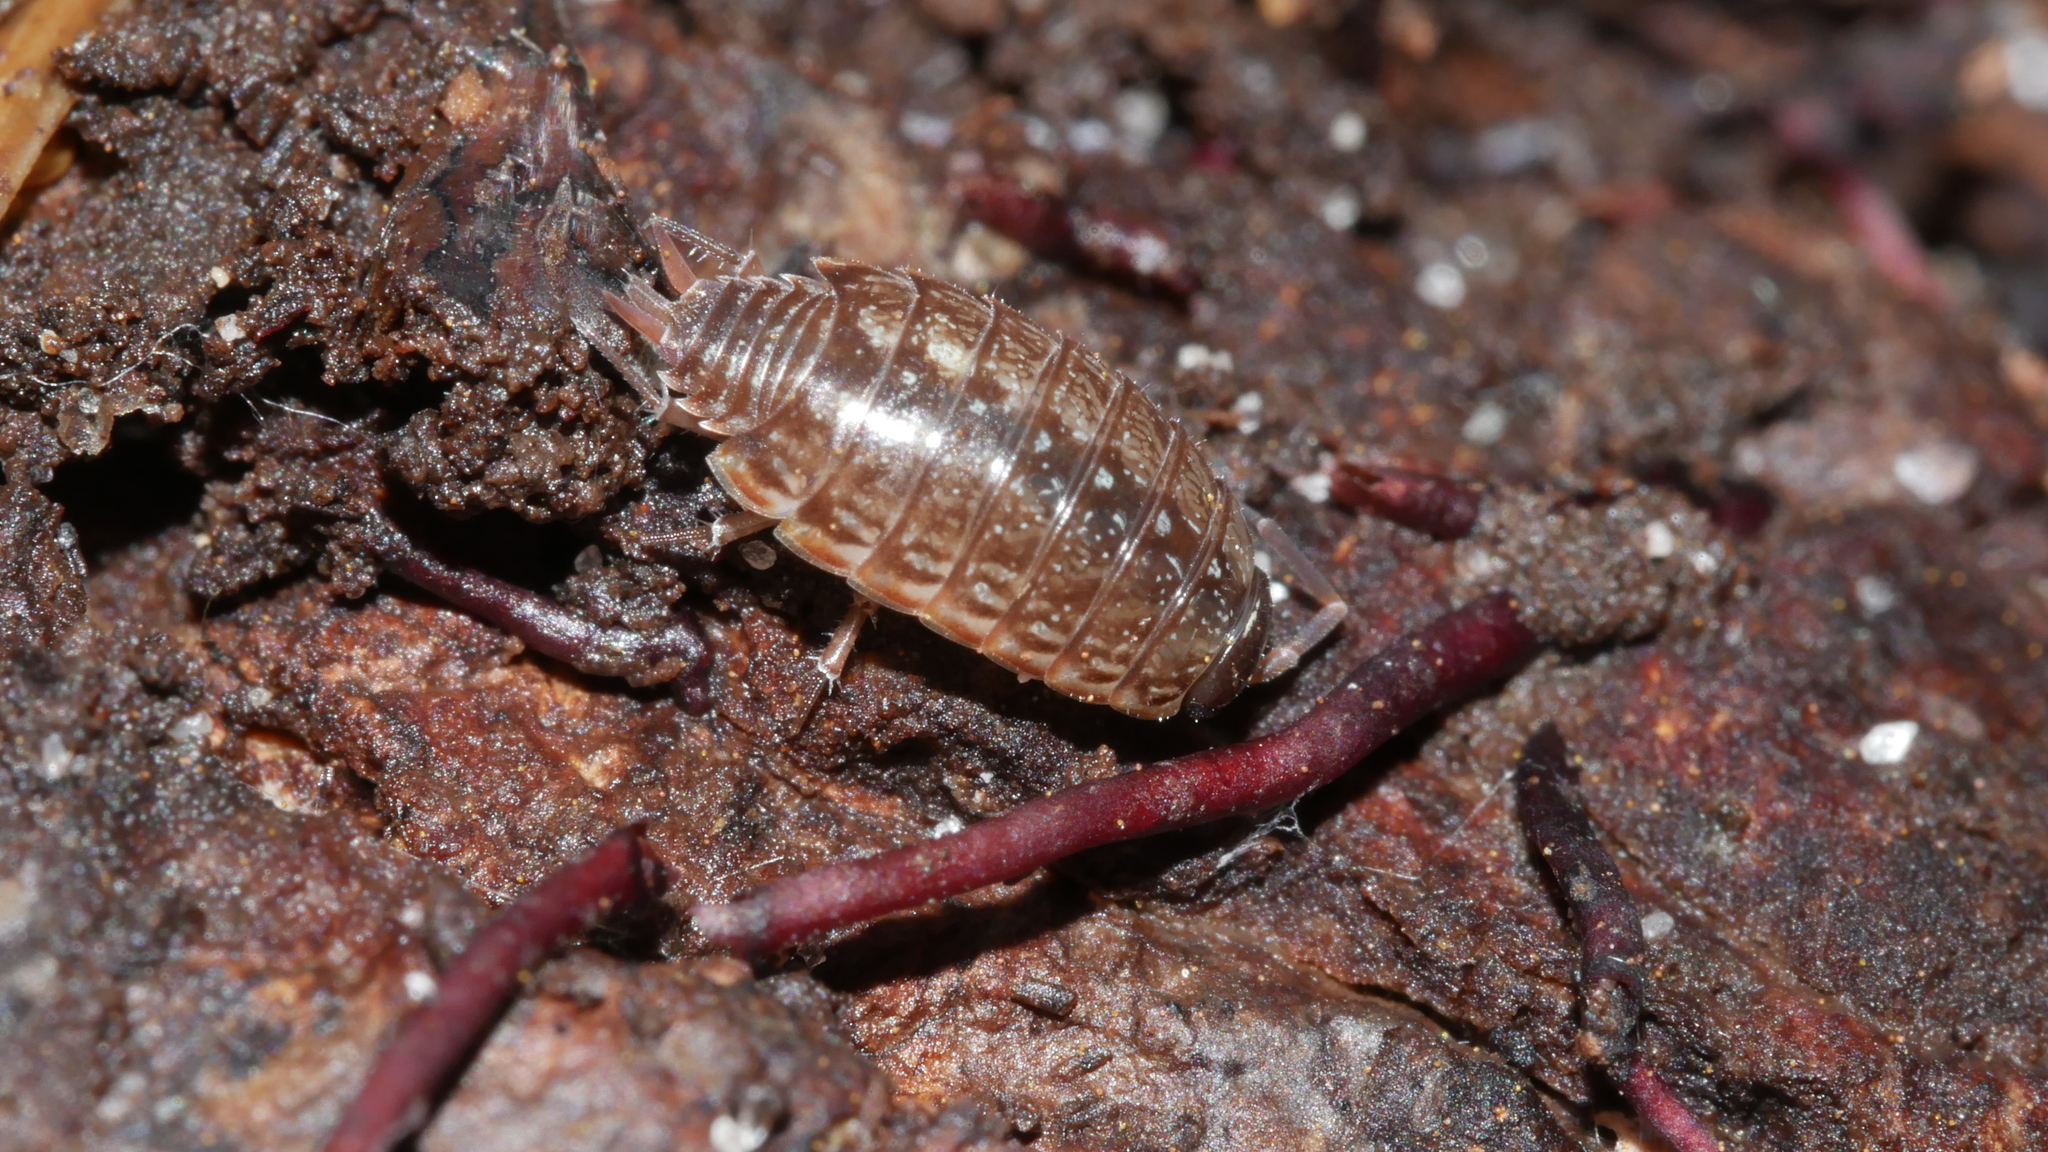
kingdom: Animalia
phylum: Arthropoda
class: Malacostraca
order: Isopoda
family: Philosciidae
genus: Philoscia
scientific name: Philoscia muscorum
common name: Common striped woodlouse
